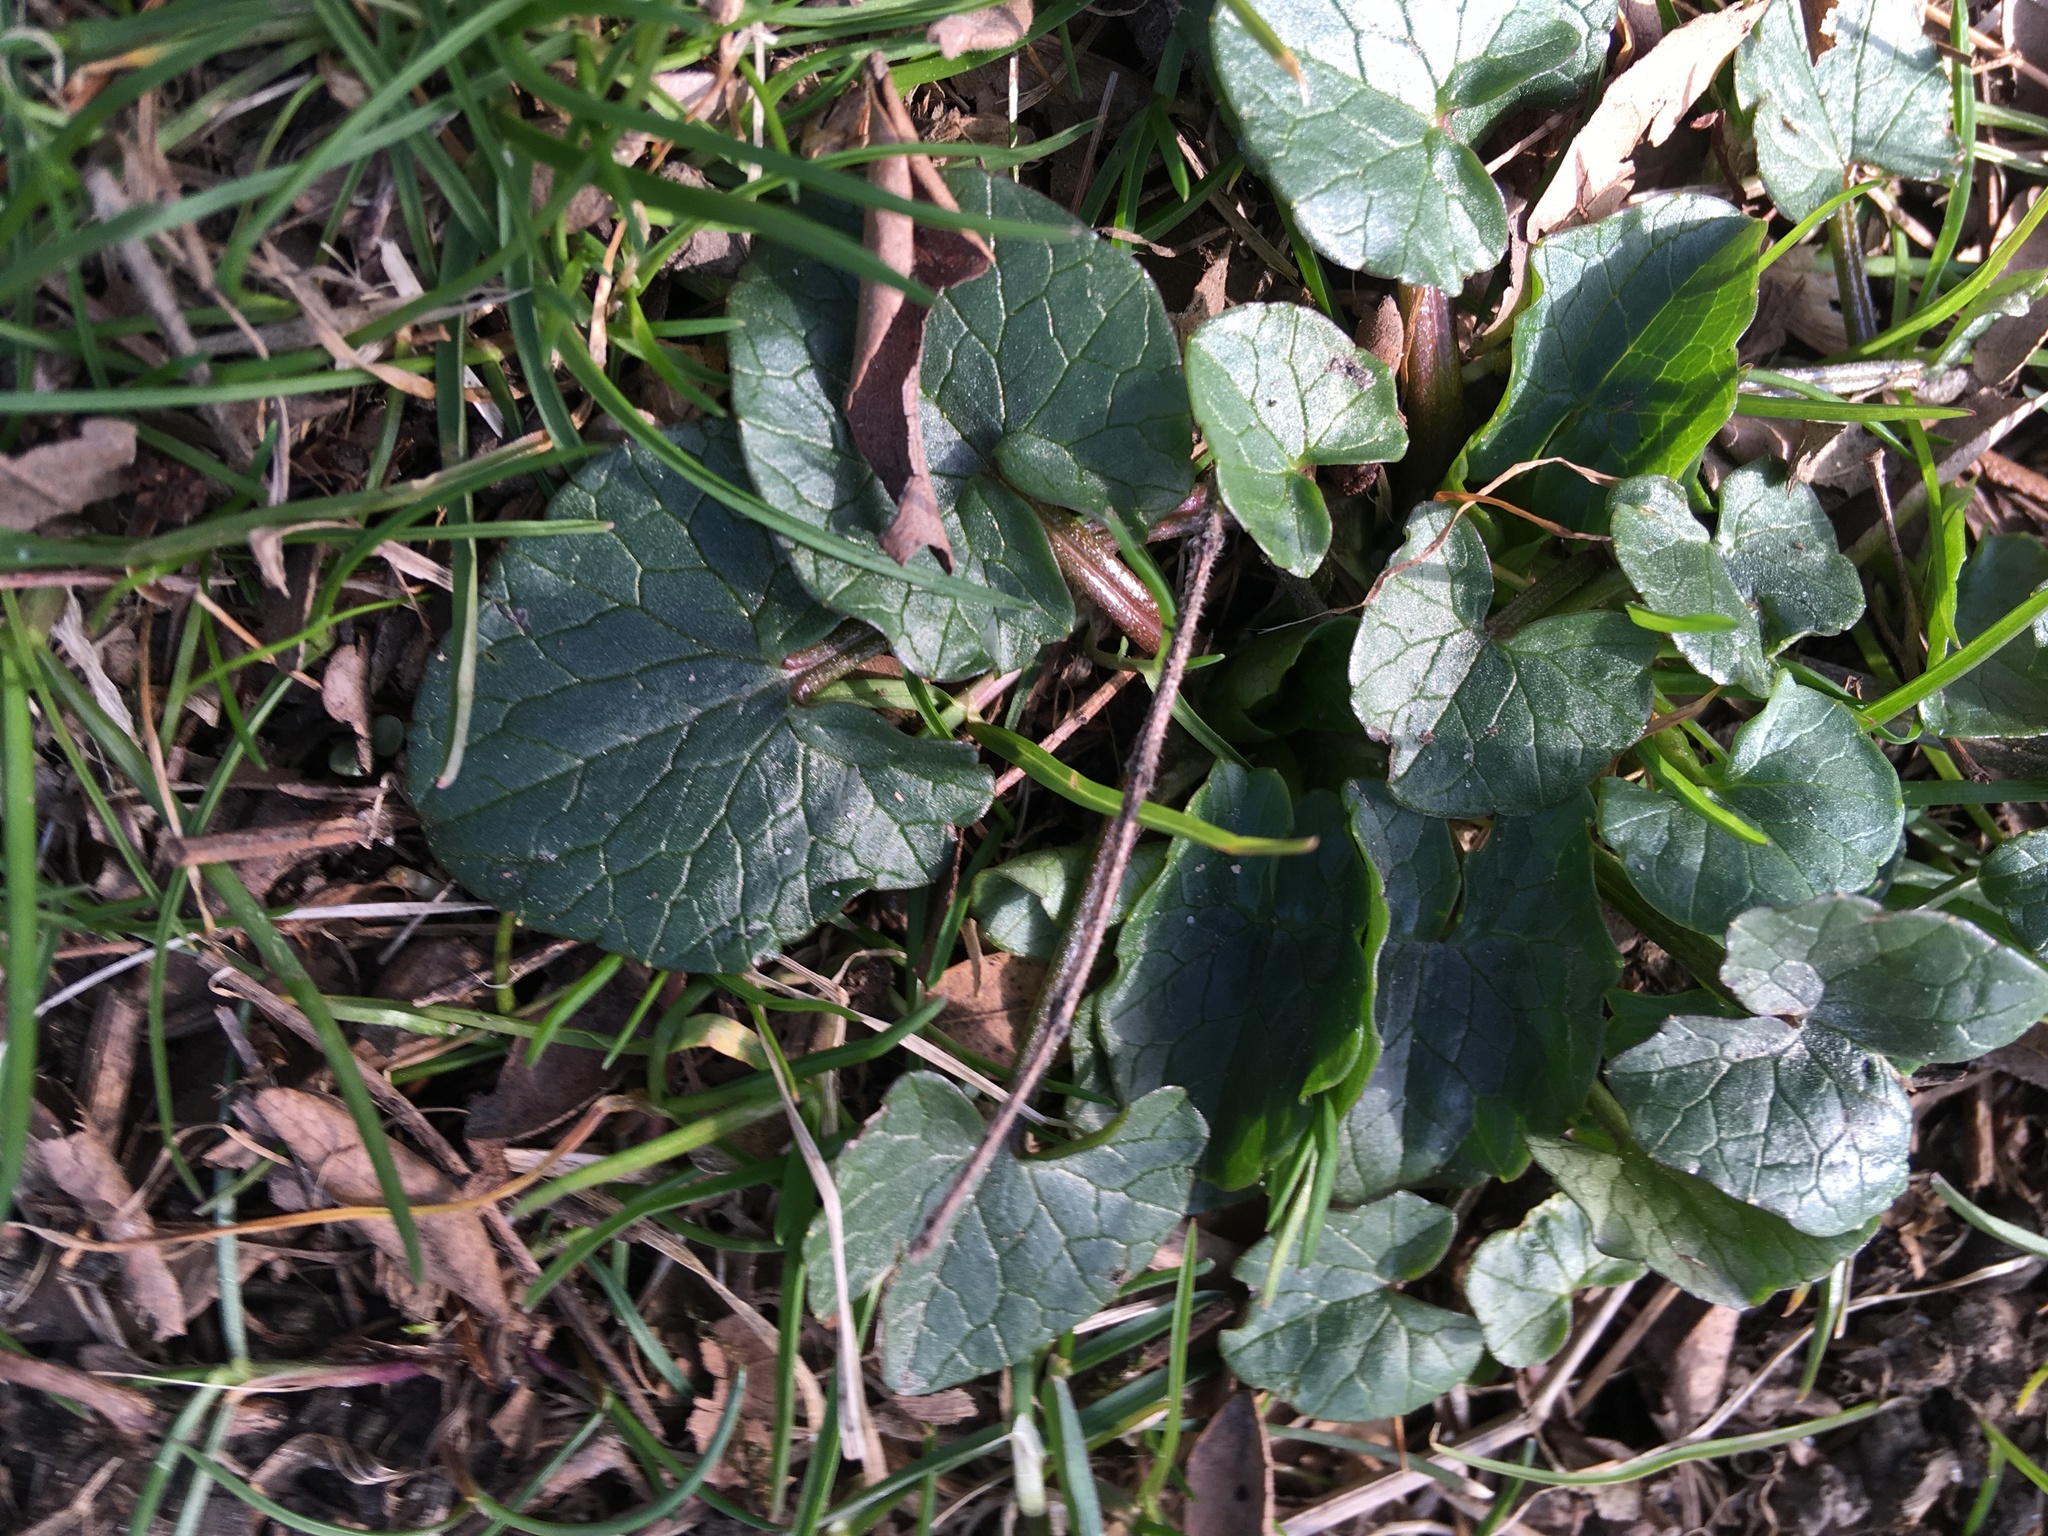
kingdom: Plantae
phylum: Tracheophyta
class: Magnoliopsida
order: Ranunculales
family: Ranunculaceae
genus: Ficaria
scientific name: Ficaria verna
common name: Lesser celandine
